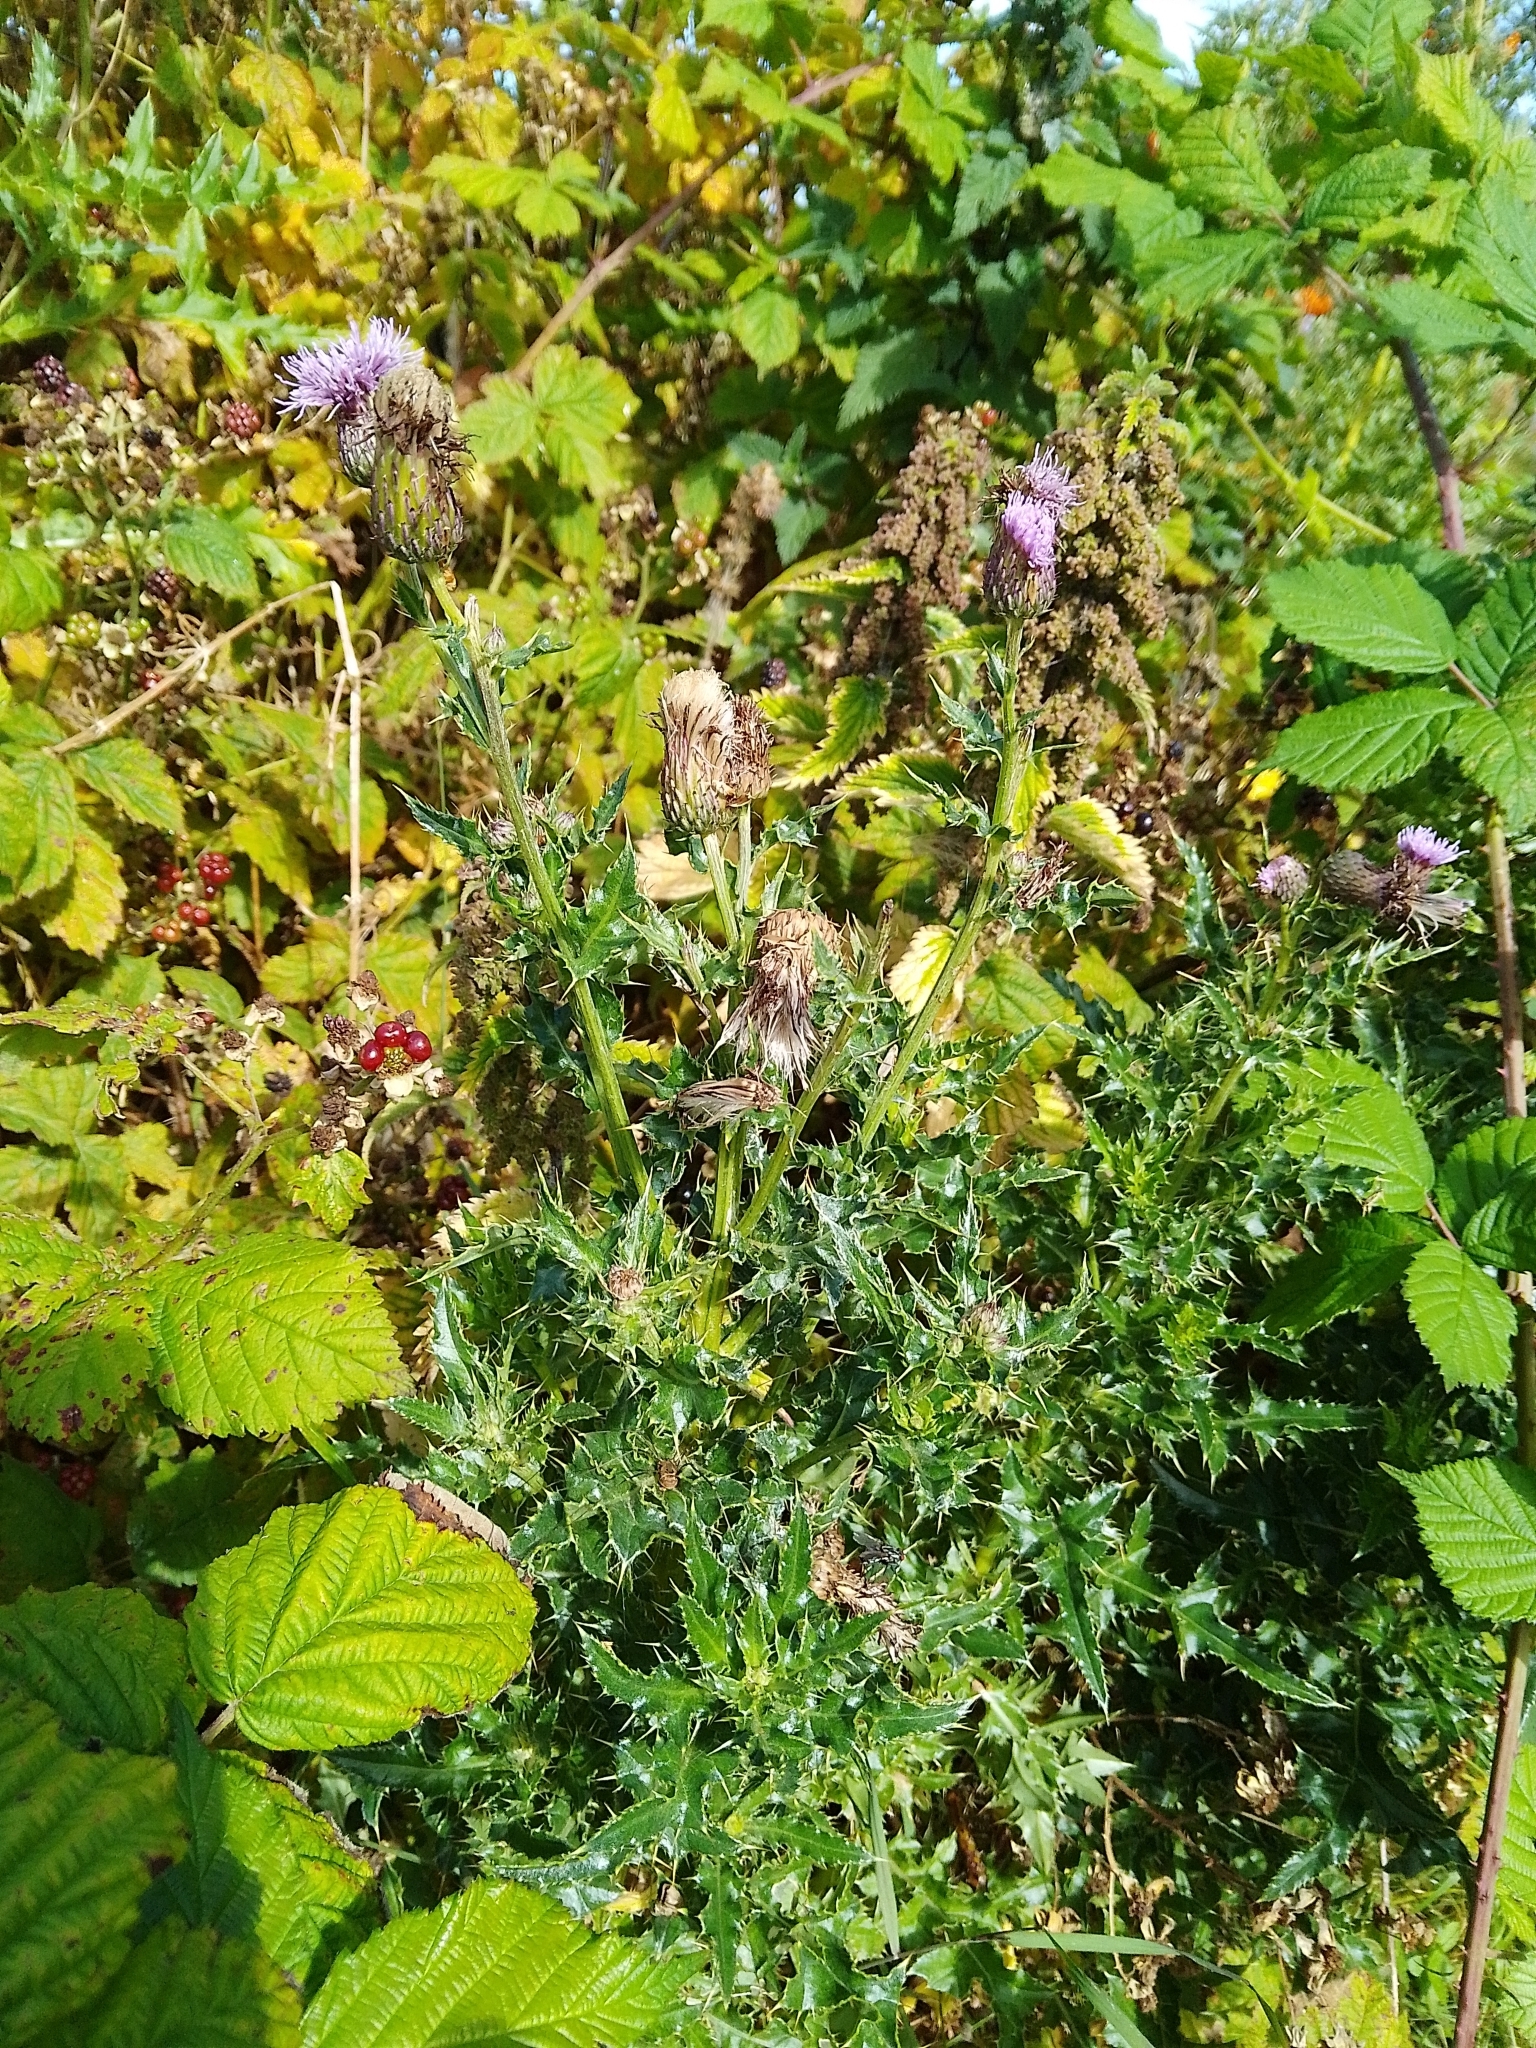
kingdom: Plantae
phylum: Tracheophyta
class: Magnoliopsida
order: Asterales
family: Asteraceae
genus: Cirsium
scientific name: Cirsium arvense
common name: Creeping thistle
